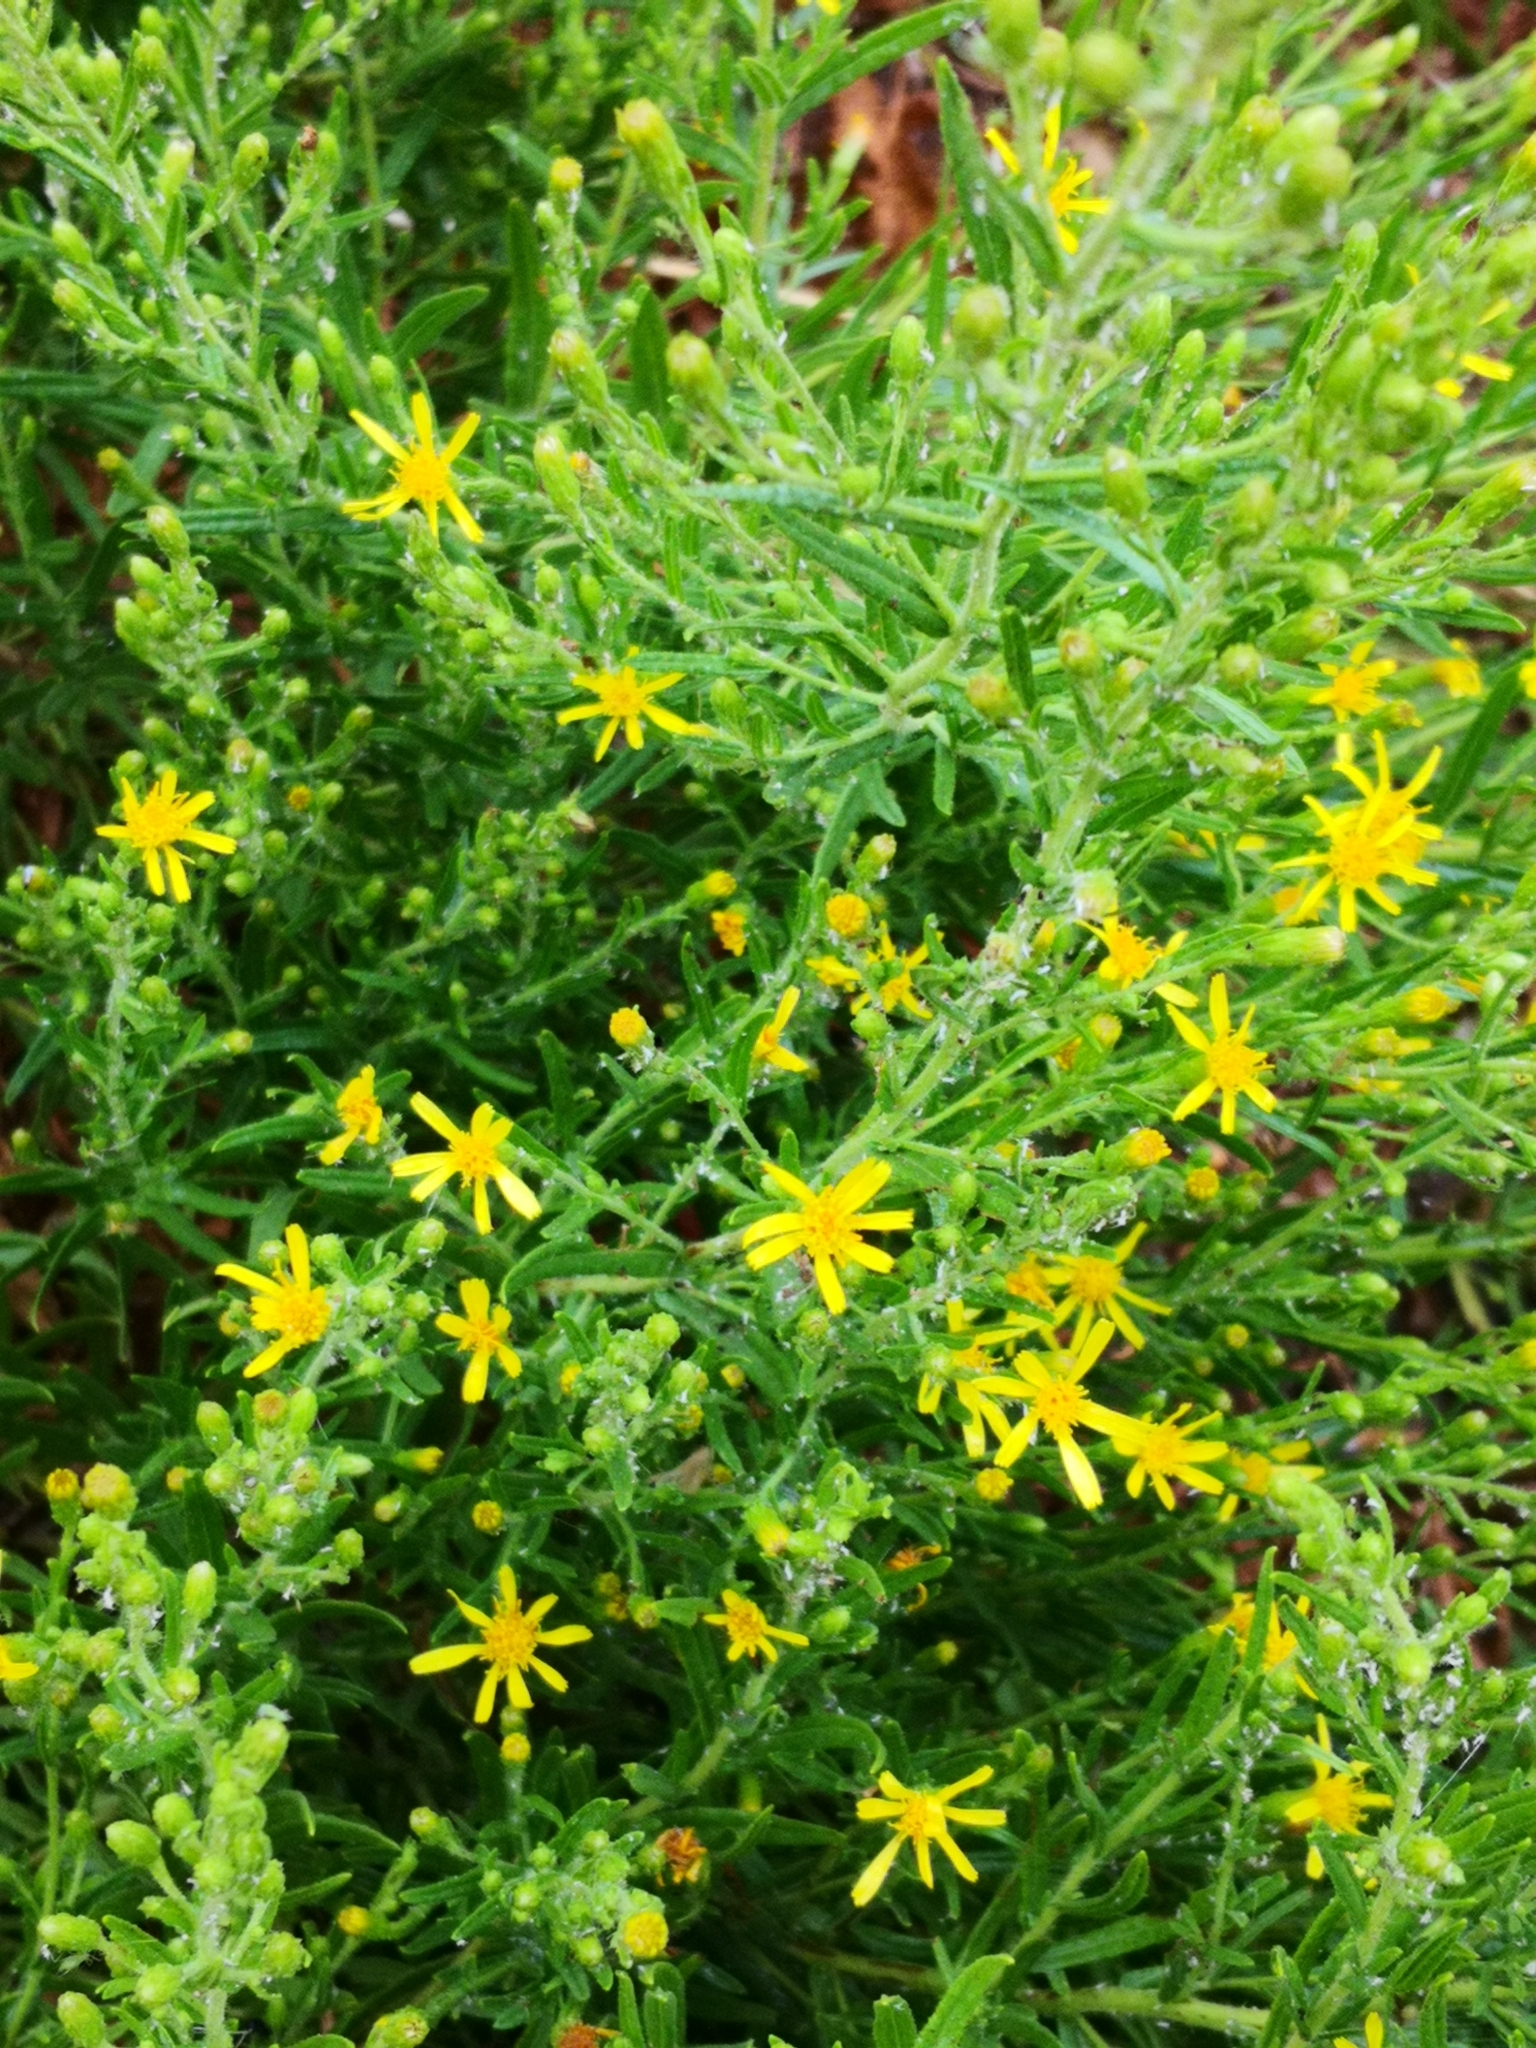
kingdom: Plantae
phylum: Tracheophyta
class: Magnoliopsida
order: Asterales
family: Asteraceae
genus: Dittrichia
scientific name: Dittrichia viscosa
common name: Woody fleabane
